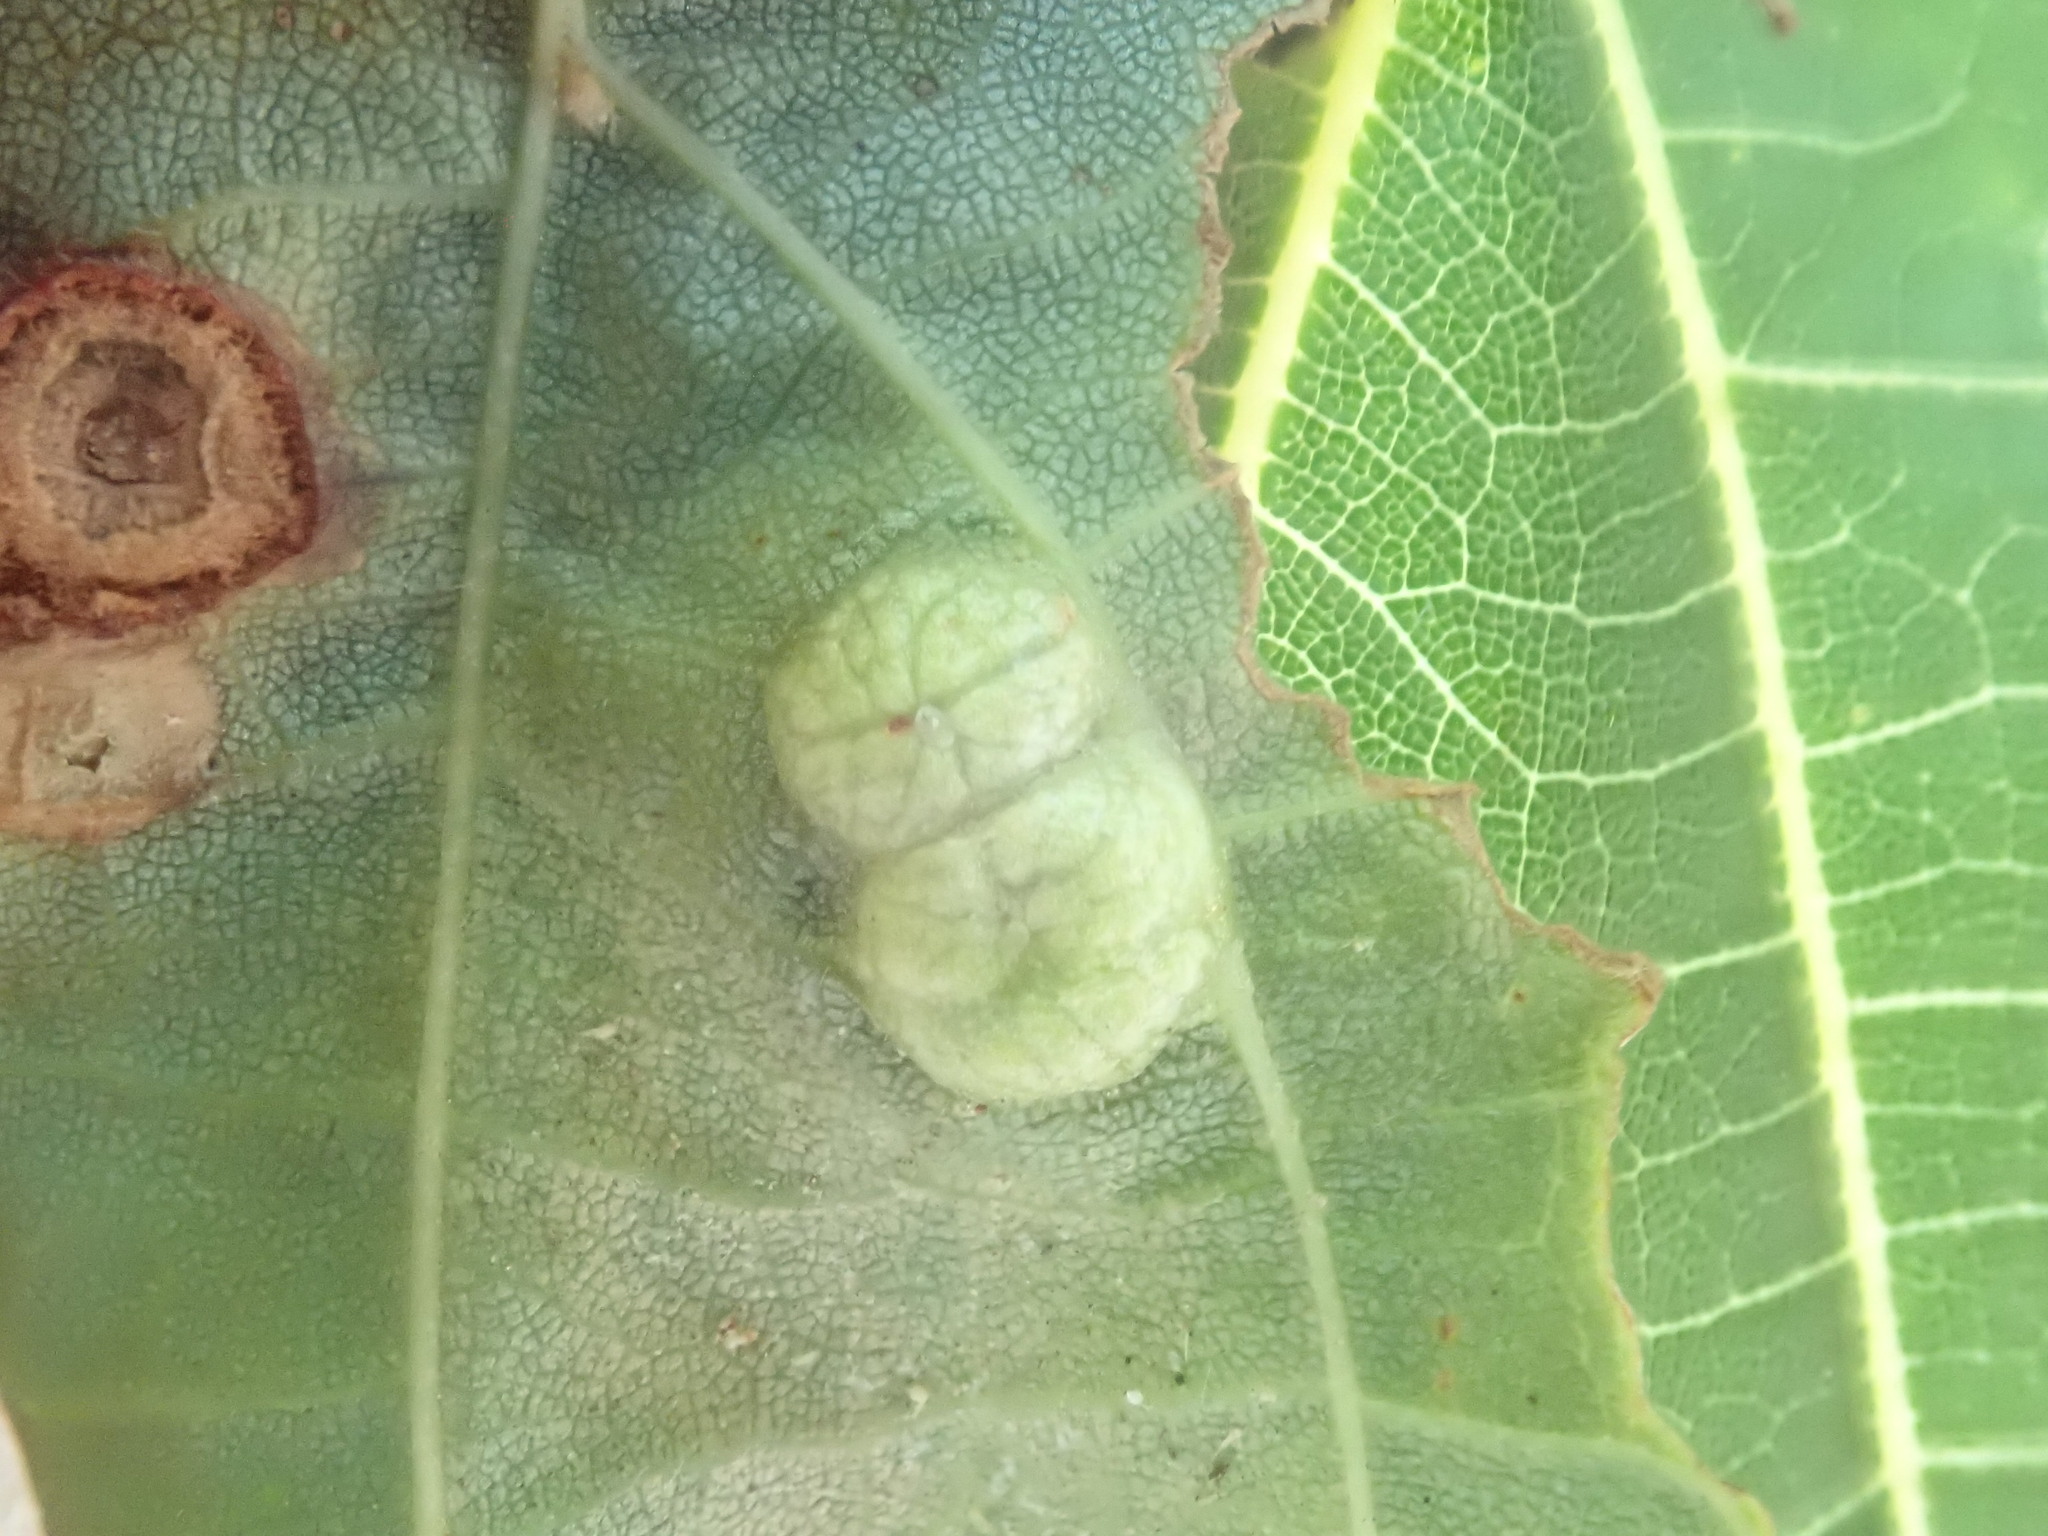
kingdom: Animalia
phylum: Arthropoda
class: Insecta
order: Diptera
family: Cecidomyiidae
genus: Contarinia
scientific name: Contarinia verrucicola
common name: Linden wart gall midge
